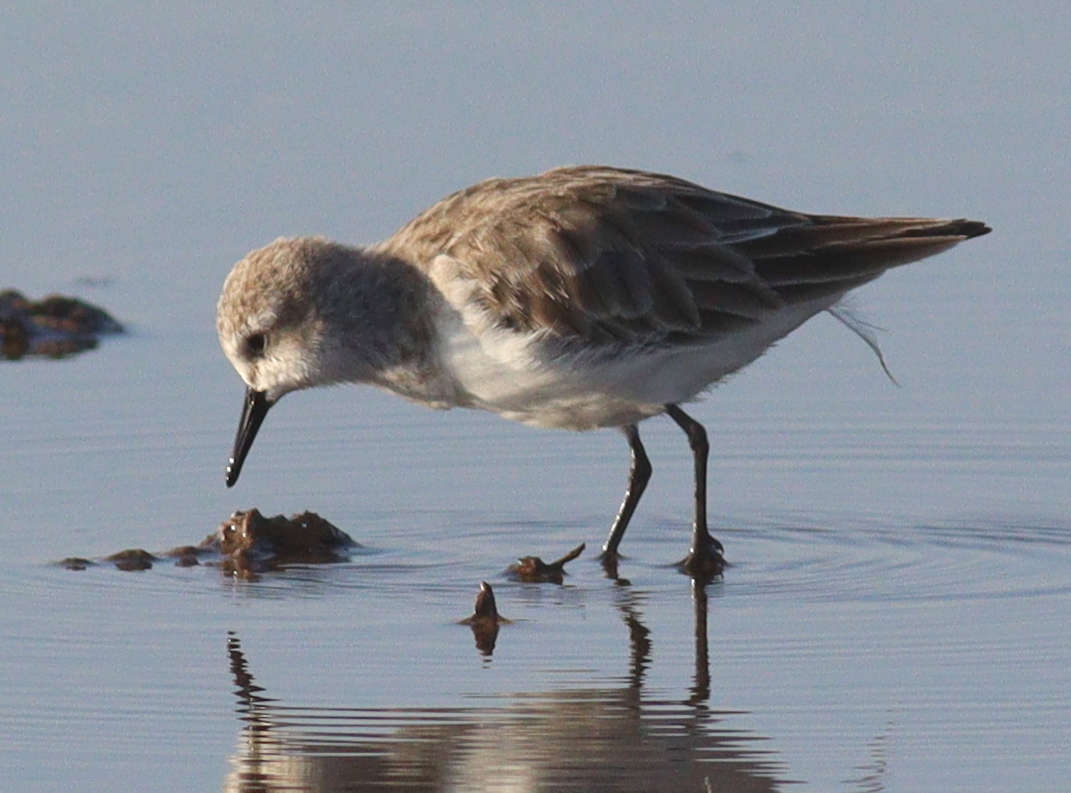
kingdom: Animalia
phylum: Chordata
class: Aves
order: Charadriiformes
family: Scolopacidae
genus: Calidris
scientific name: Calidris minuta
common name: Little stint
